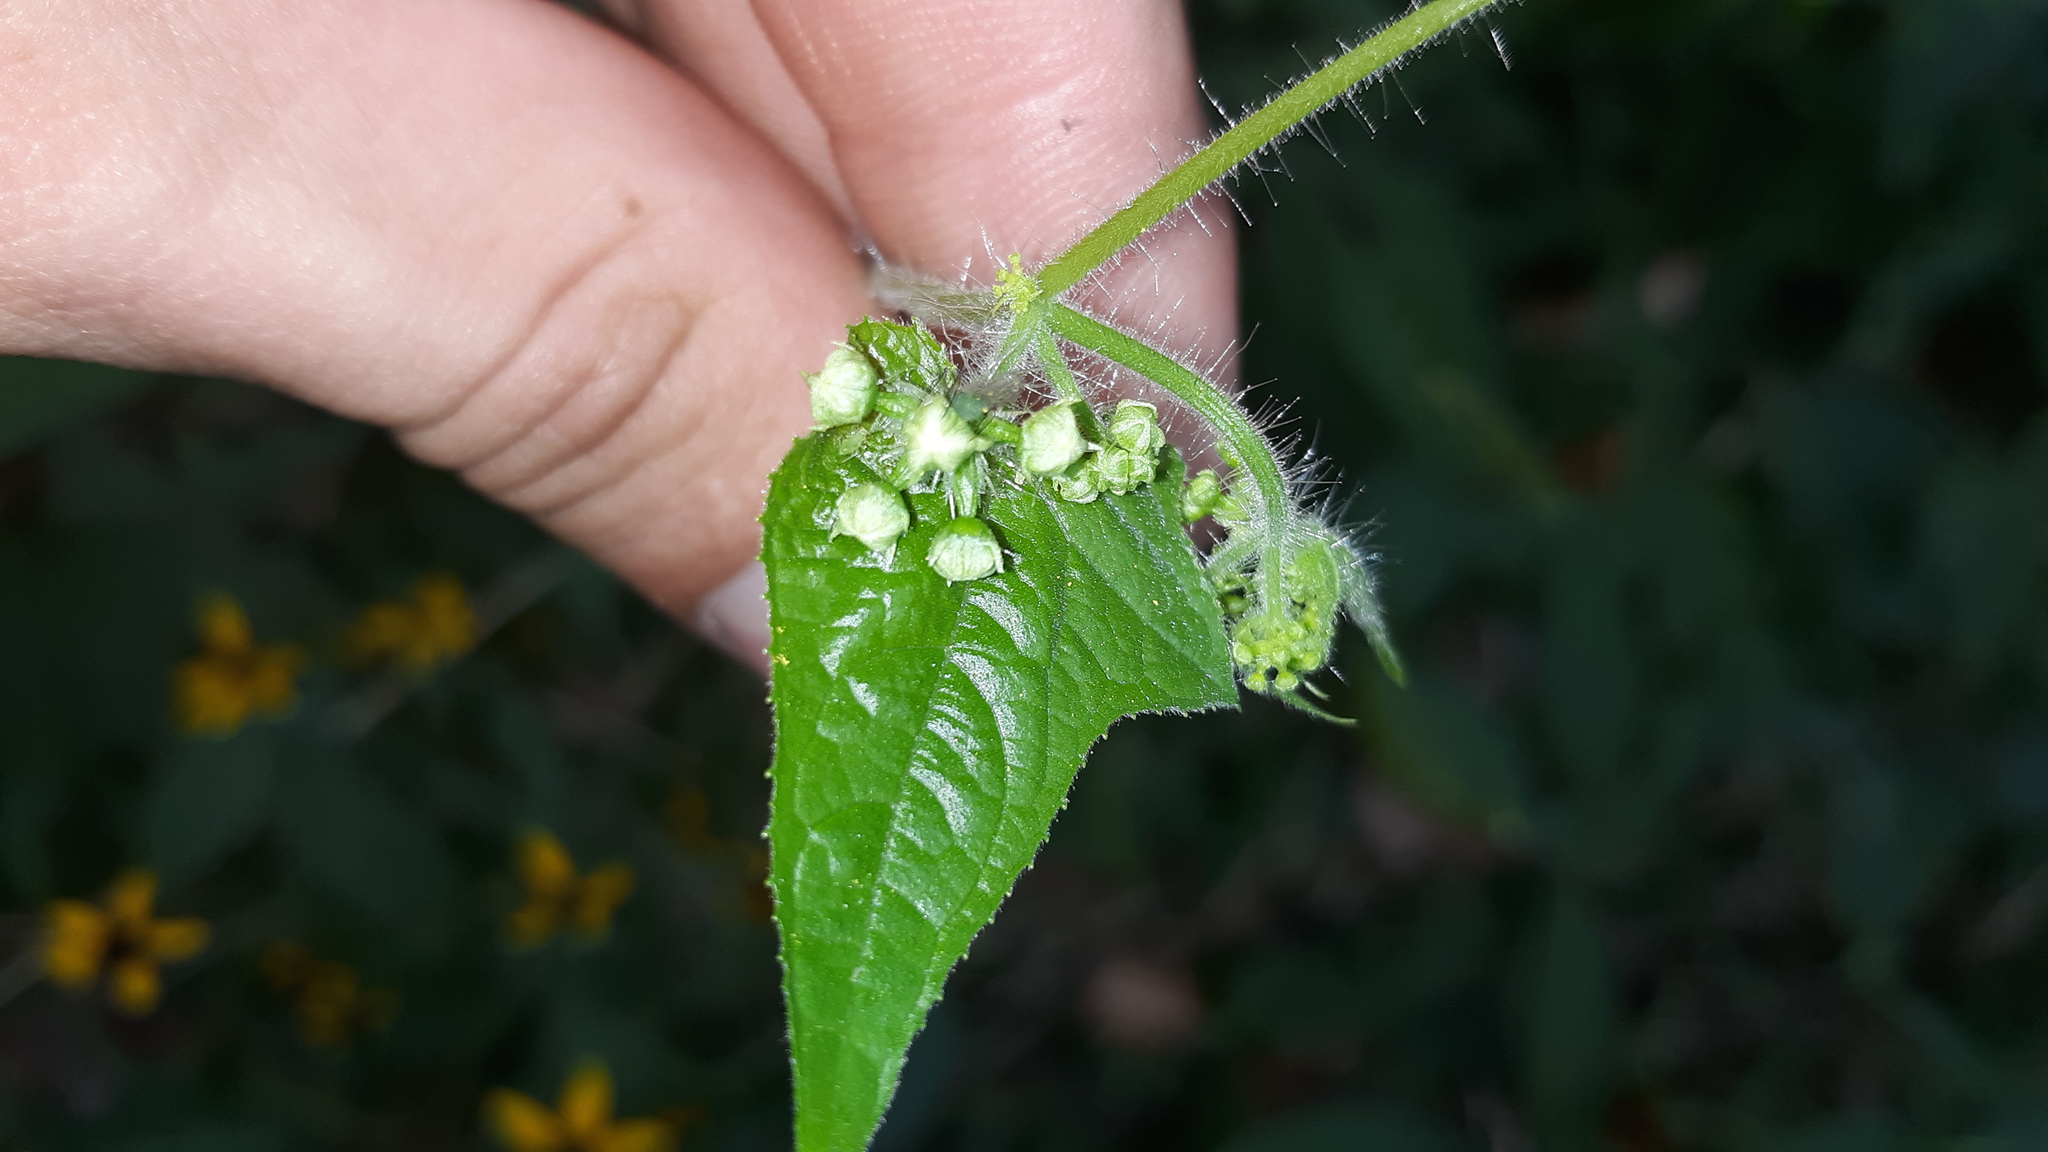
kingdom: Plantae
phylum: Tracheophyta
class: Magnoliopsida
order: Cucurbitales
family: Cucurbitaceae
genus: Sicyos
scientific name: Sicyos angulatus
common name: Angled burr cucumber
